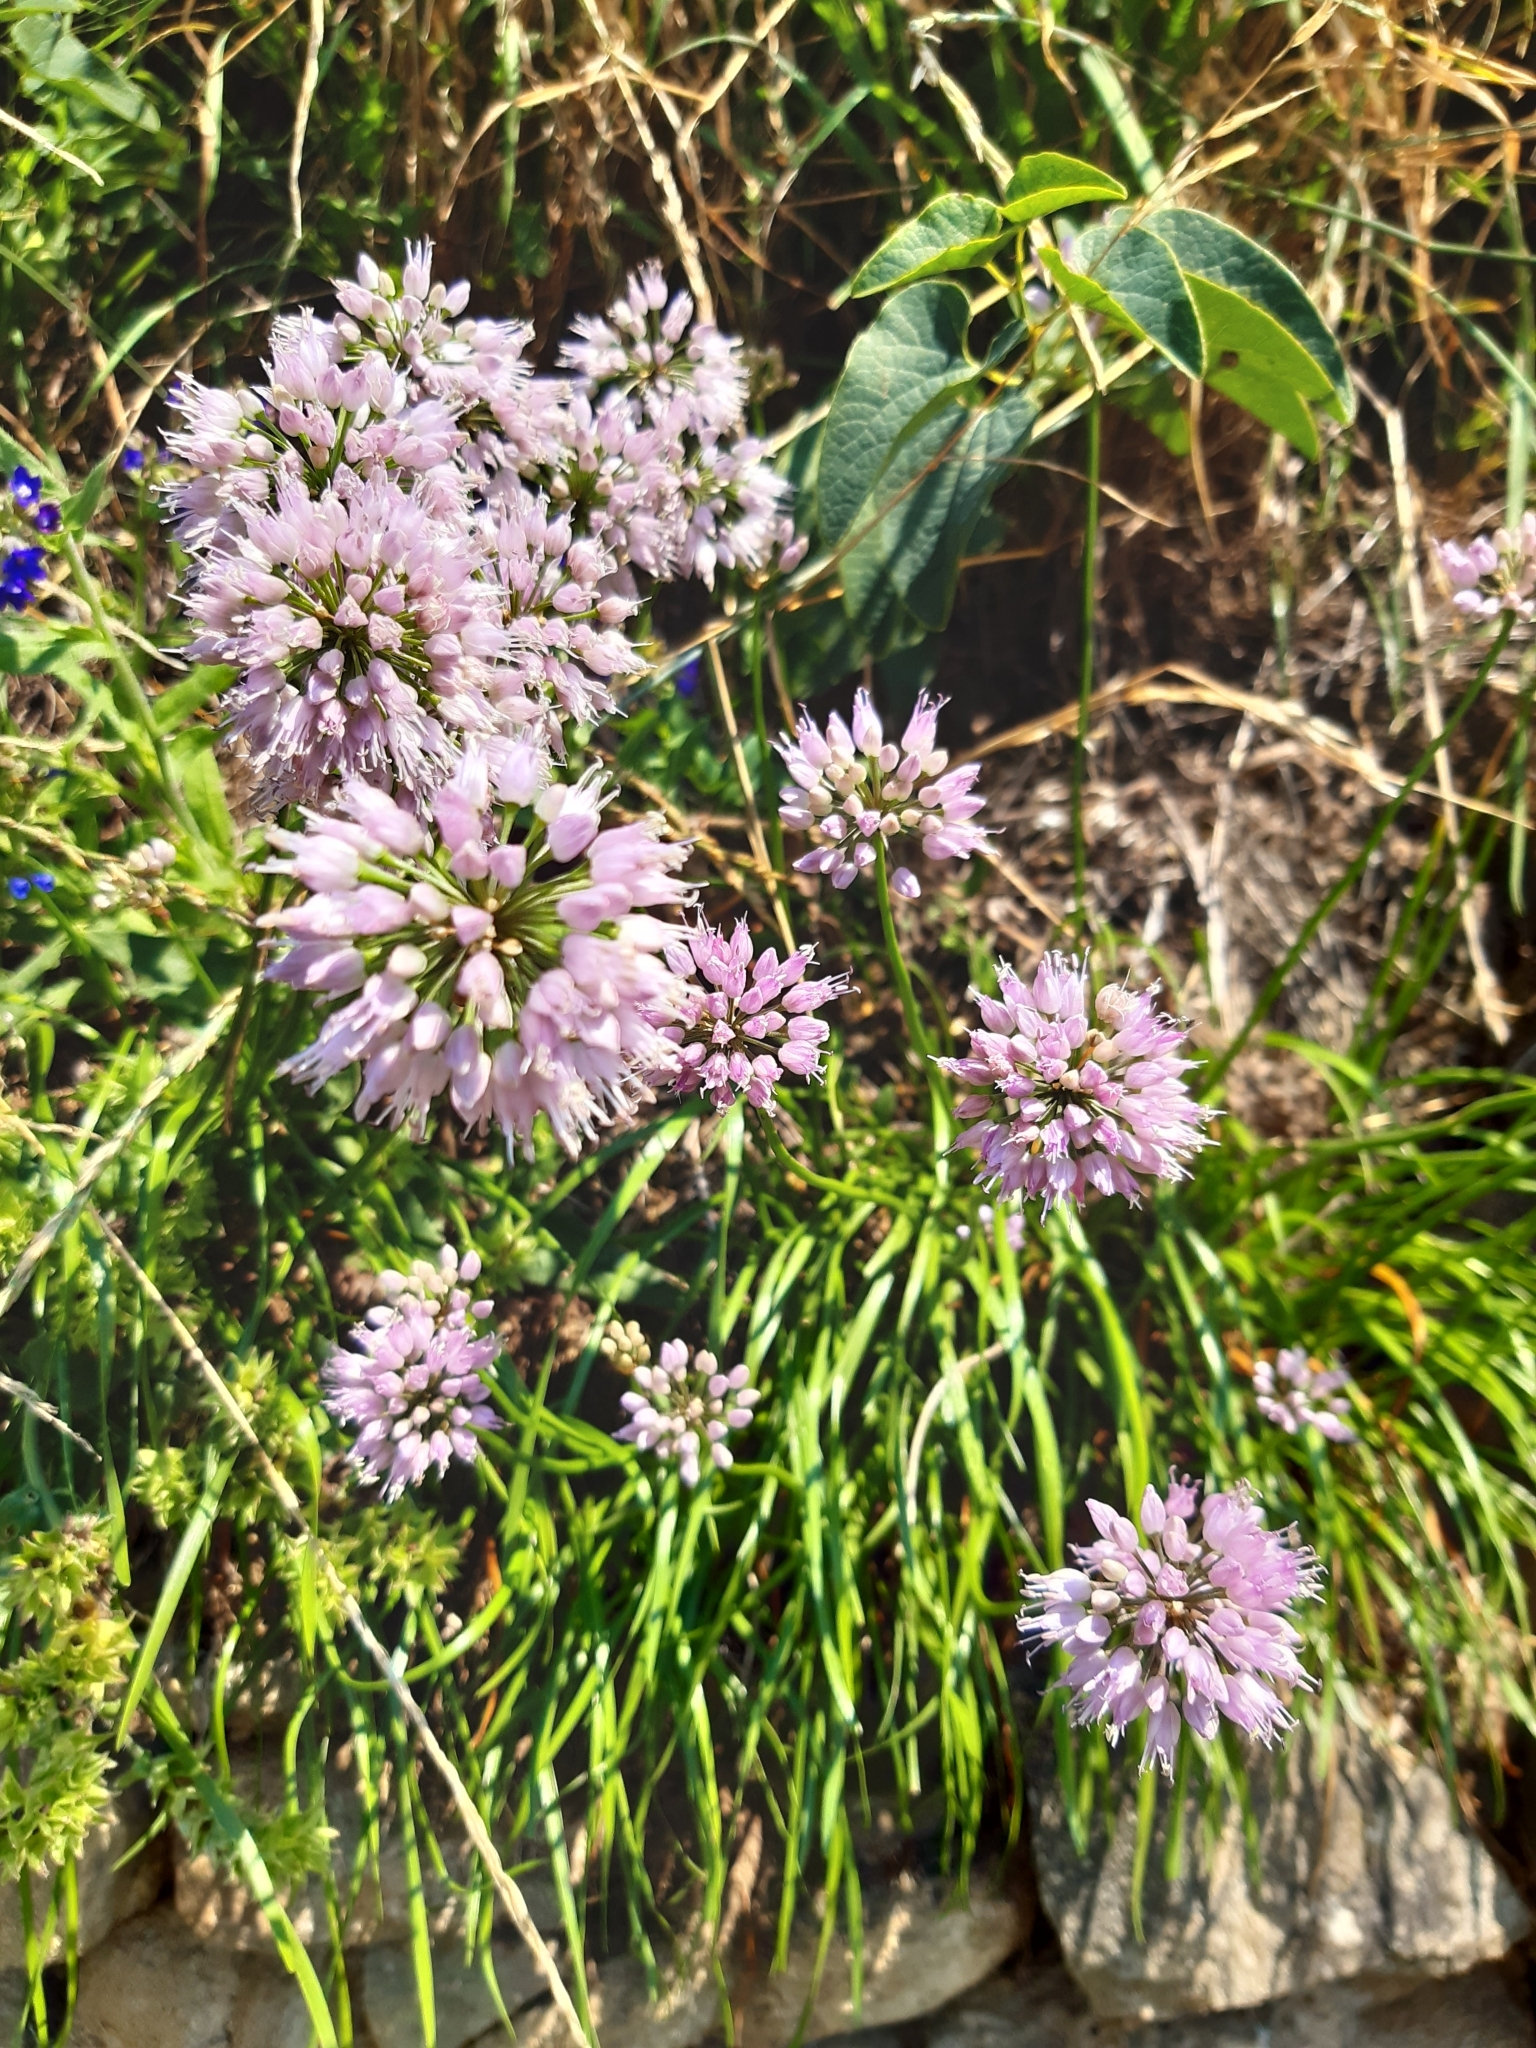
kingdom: Plantae
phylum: Tracheophyta
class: Liliopsida
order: Asparagales
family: Amaryllidaceae
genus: Allium
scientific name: Allium lusitanicum
